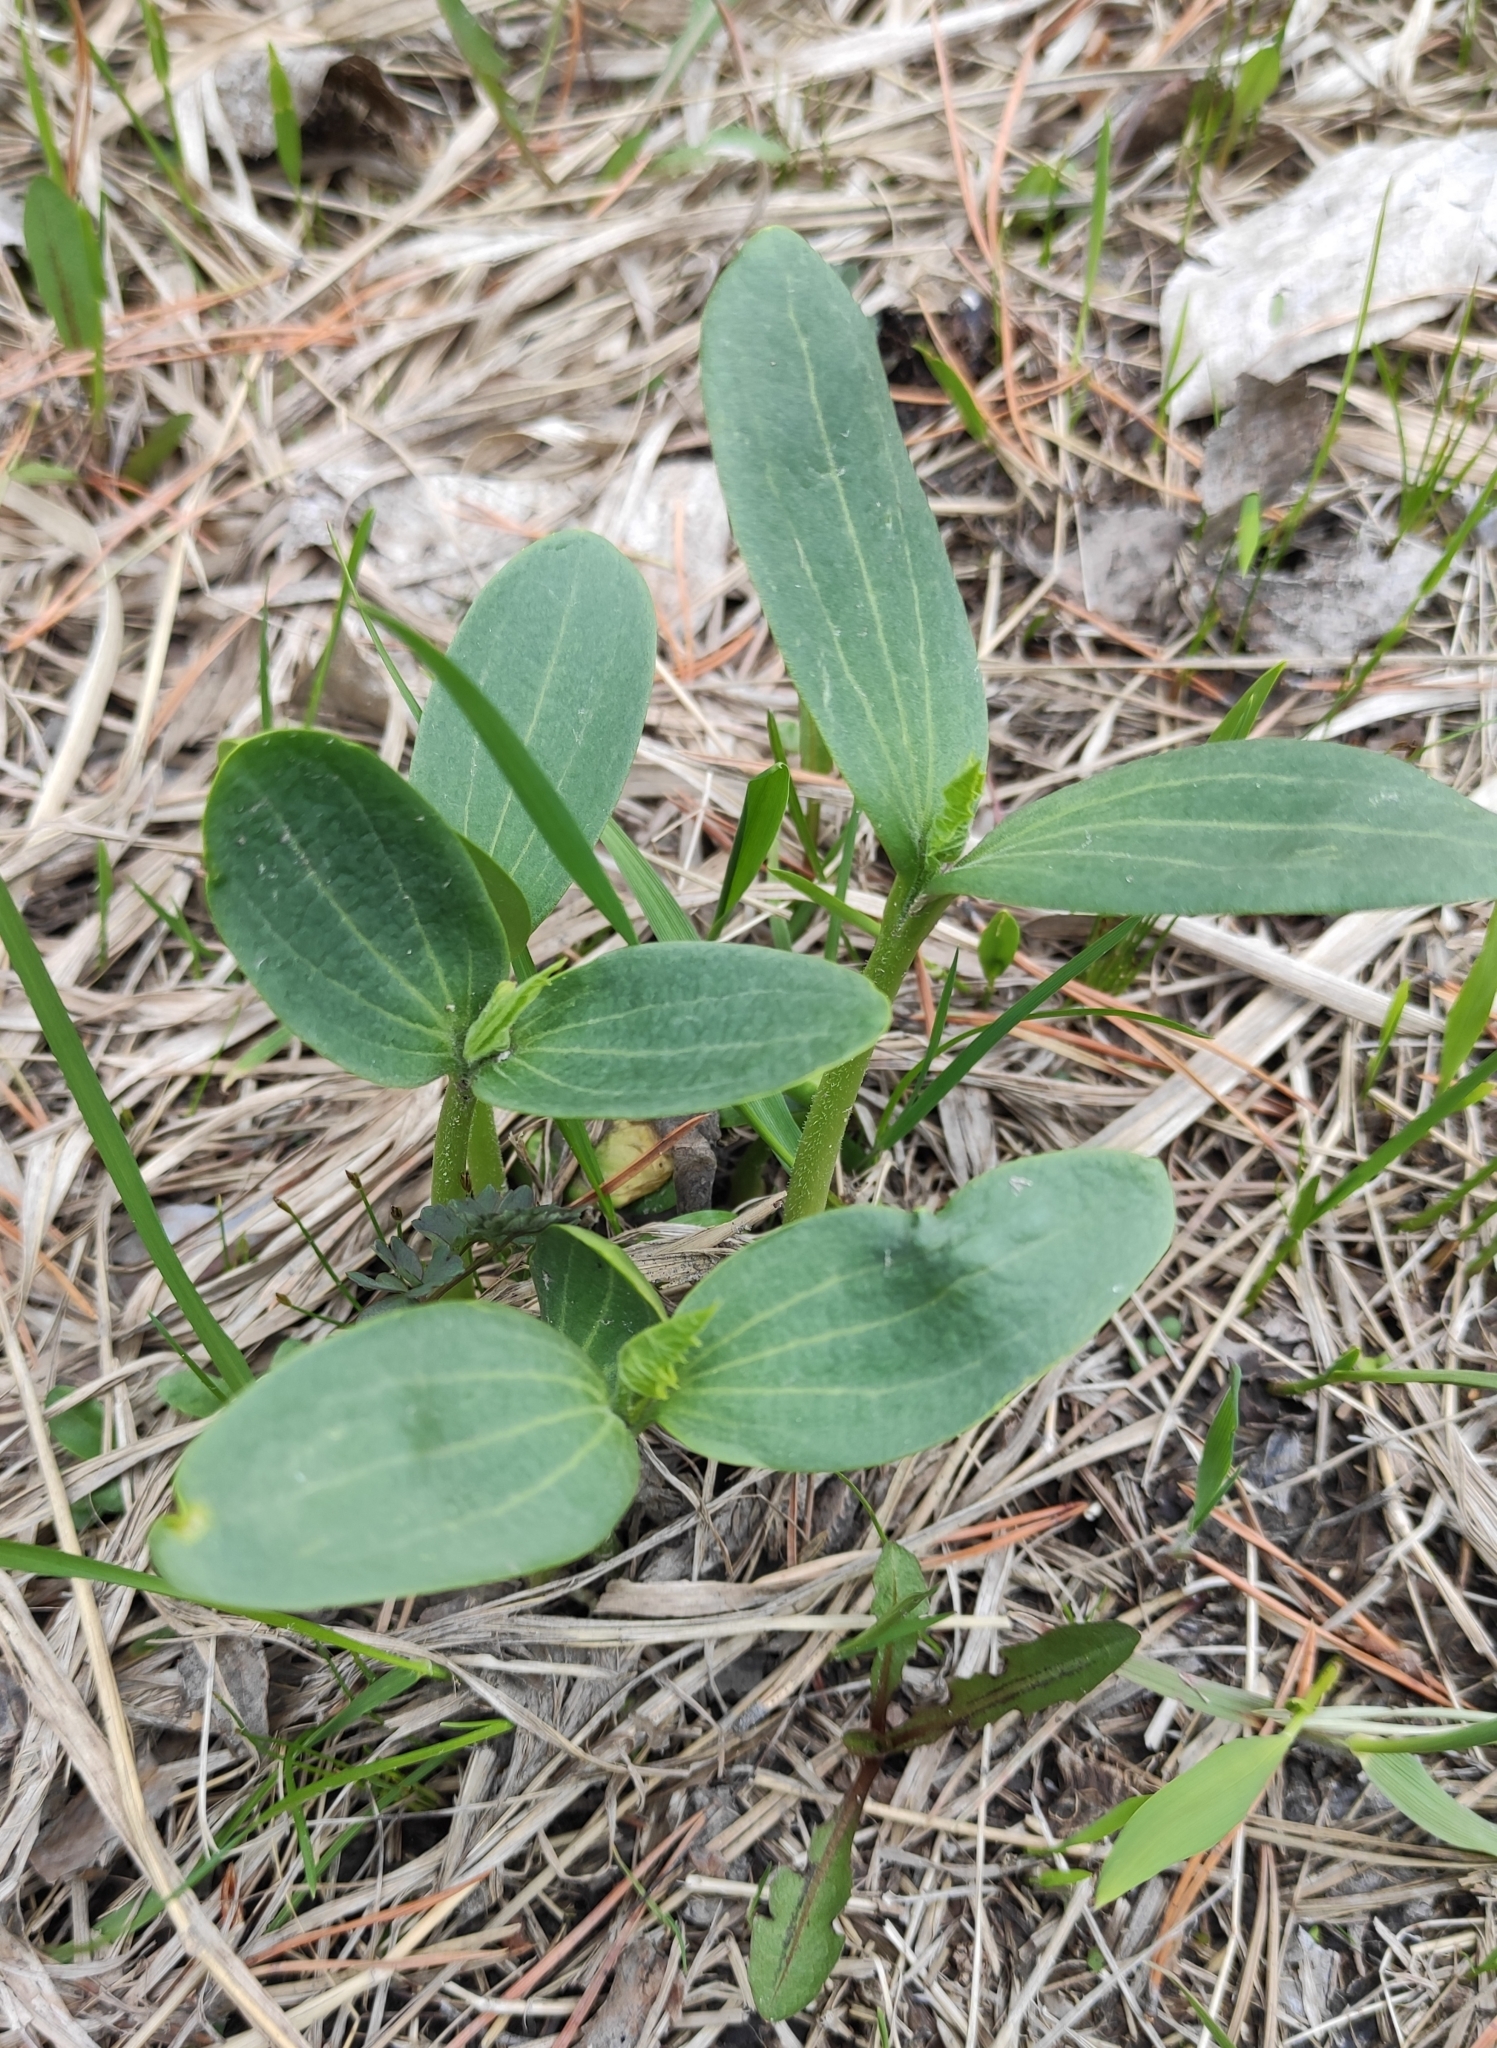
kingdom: Plantae
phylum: Tracheophyta
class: Magnoliopsida
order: Cucurbitales
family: Cucurbitaceae
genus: Echinocystis
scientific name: Echinocystis lobata
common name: Wild cucumber
